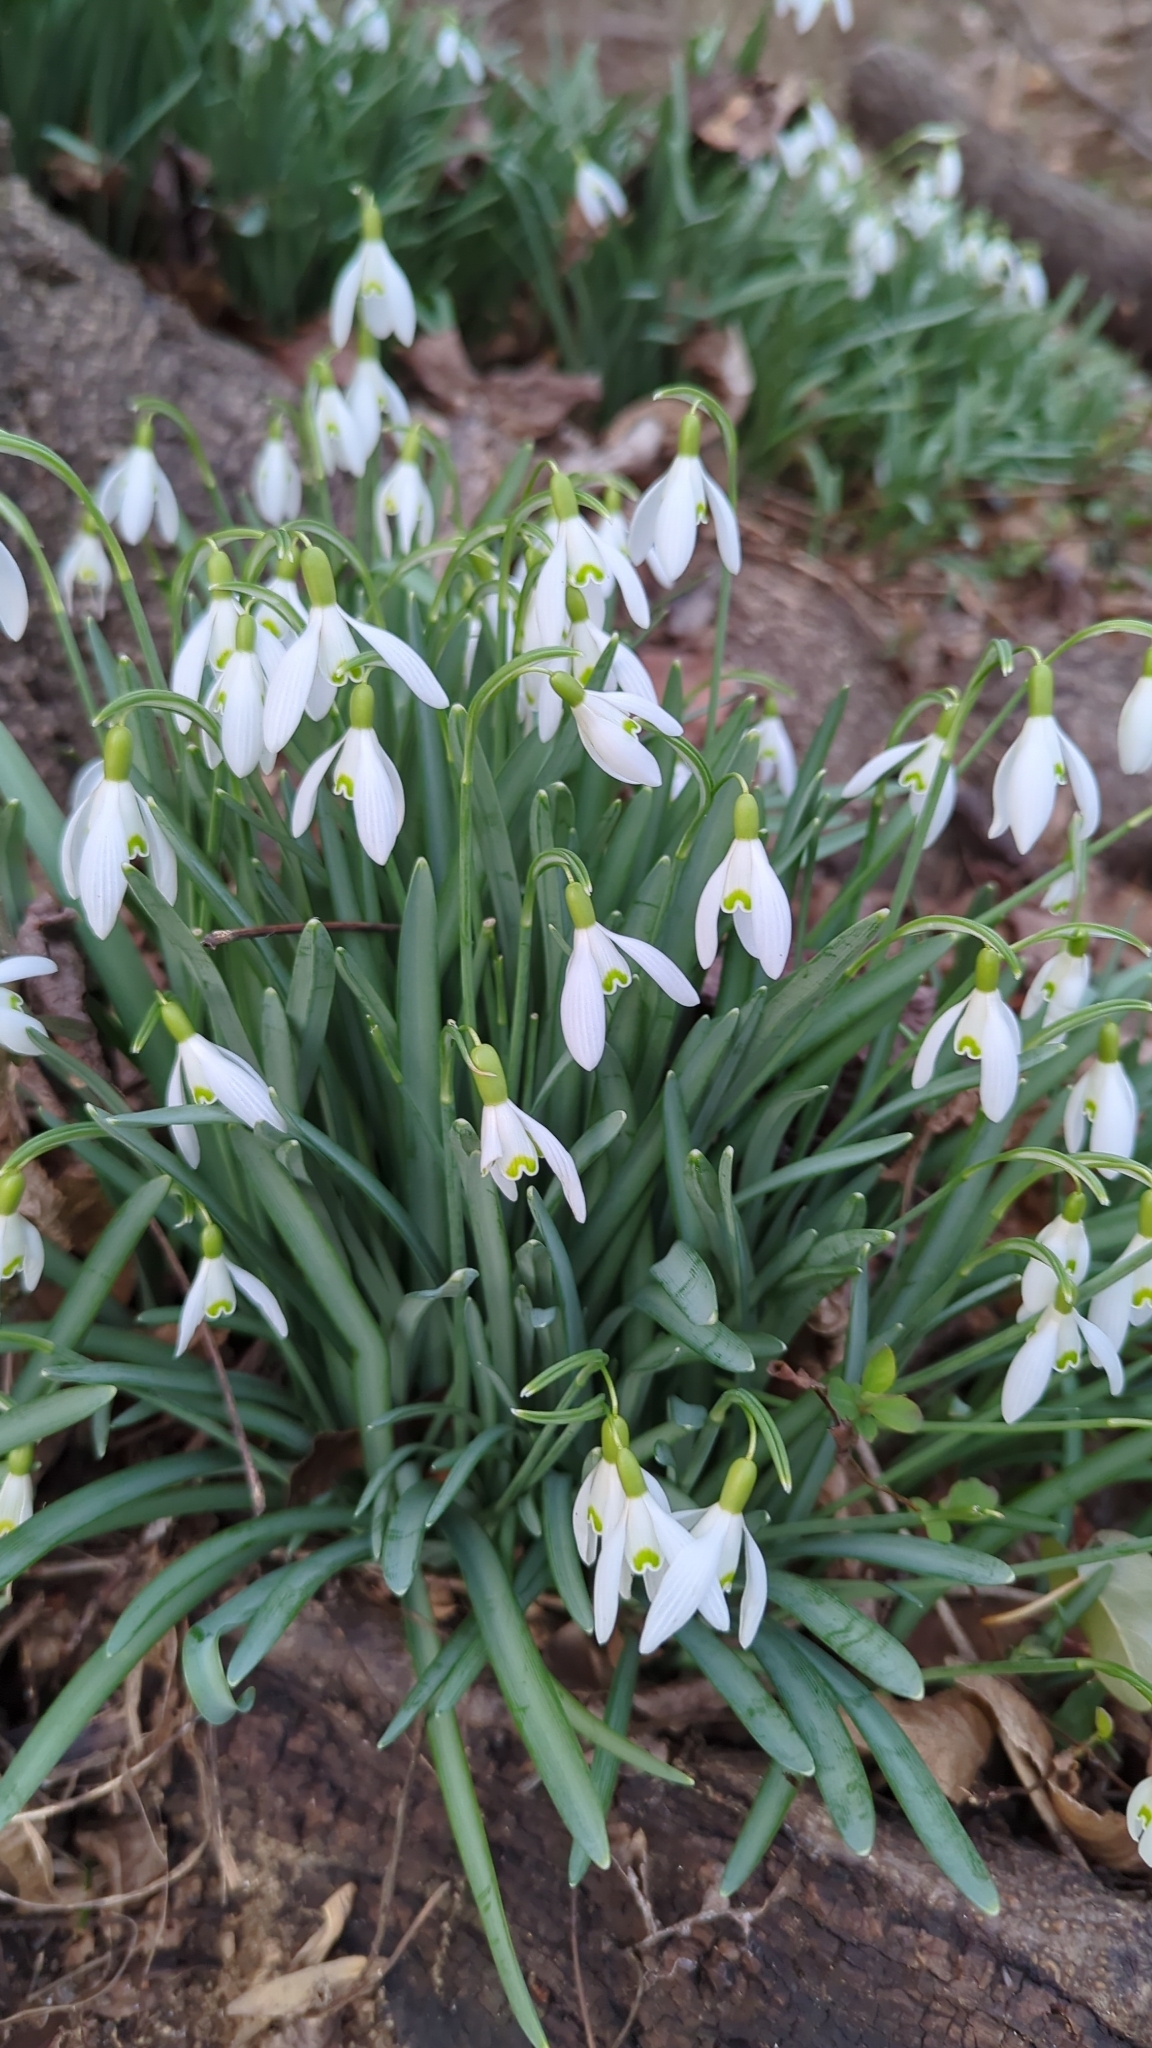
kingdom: Plantae
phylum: Tracheophyta
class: Liliopsida
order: Asparagales
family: Amaryllidaceae
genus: Galanthus
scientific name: Galanthus nivalis
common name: Snowdrop
